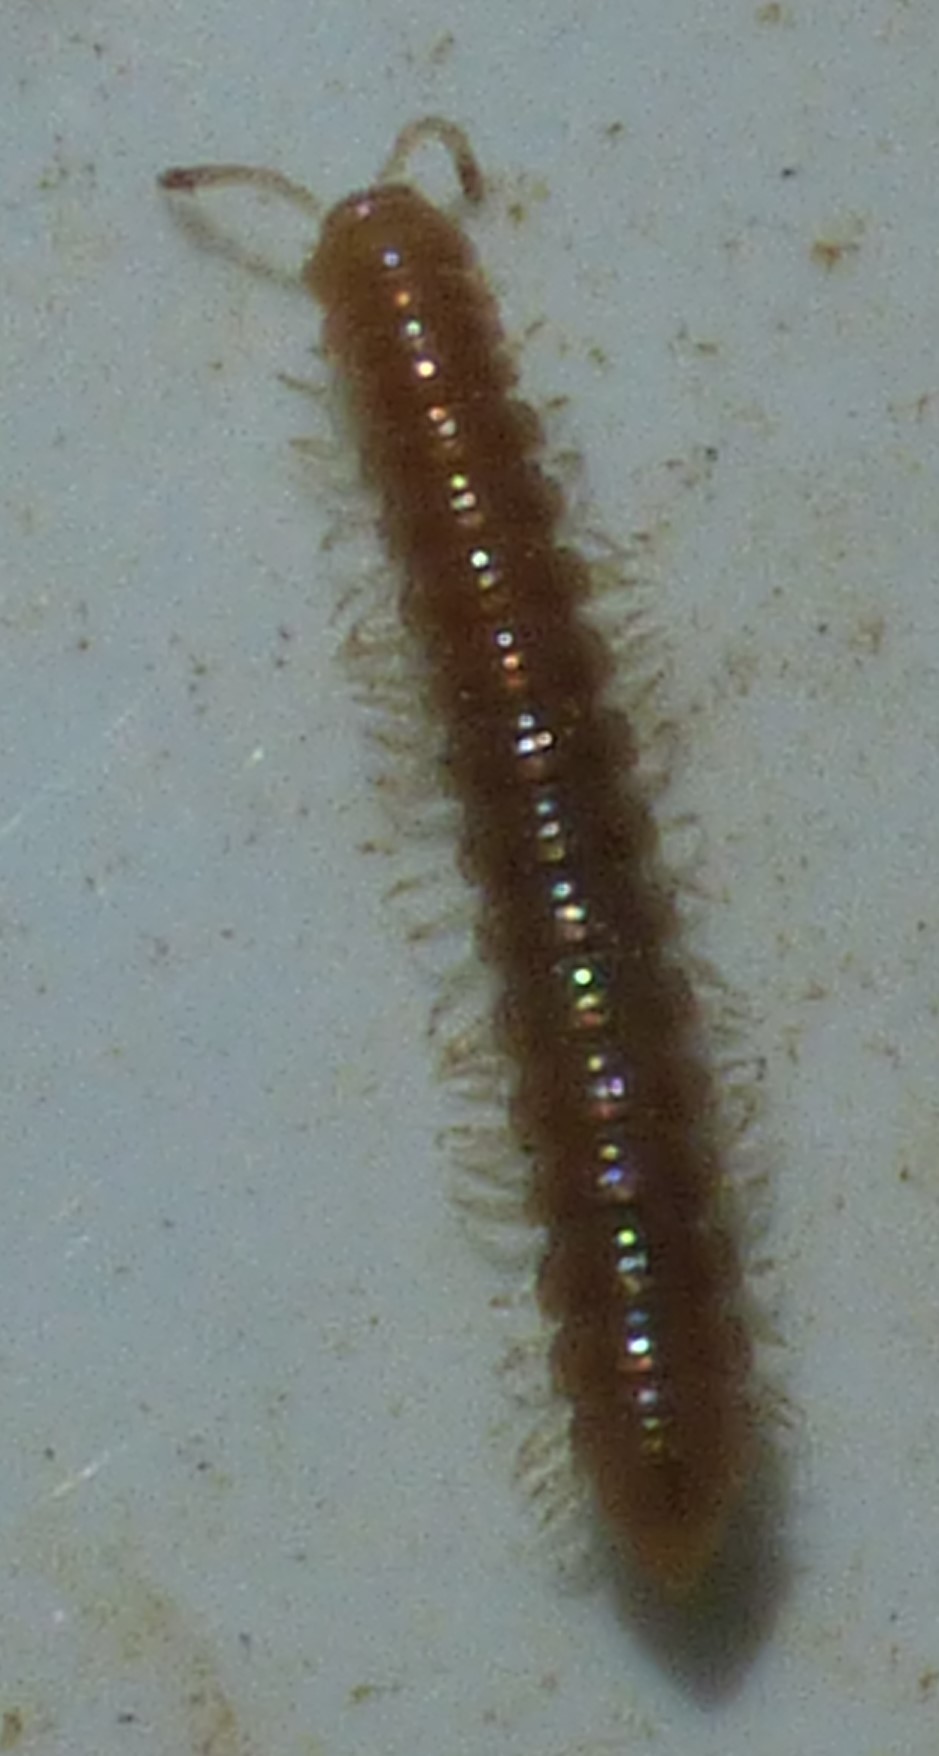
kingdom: Animalia
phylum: Arthropoda
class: Diplopoda
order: Polydesmida
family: Paradoxosomatidae
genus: Oxidus
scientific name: Oxidus gracilis
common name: Greenhouse millipede
